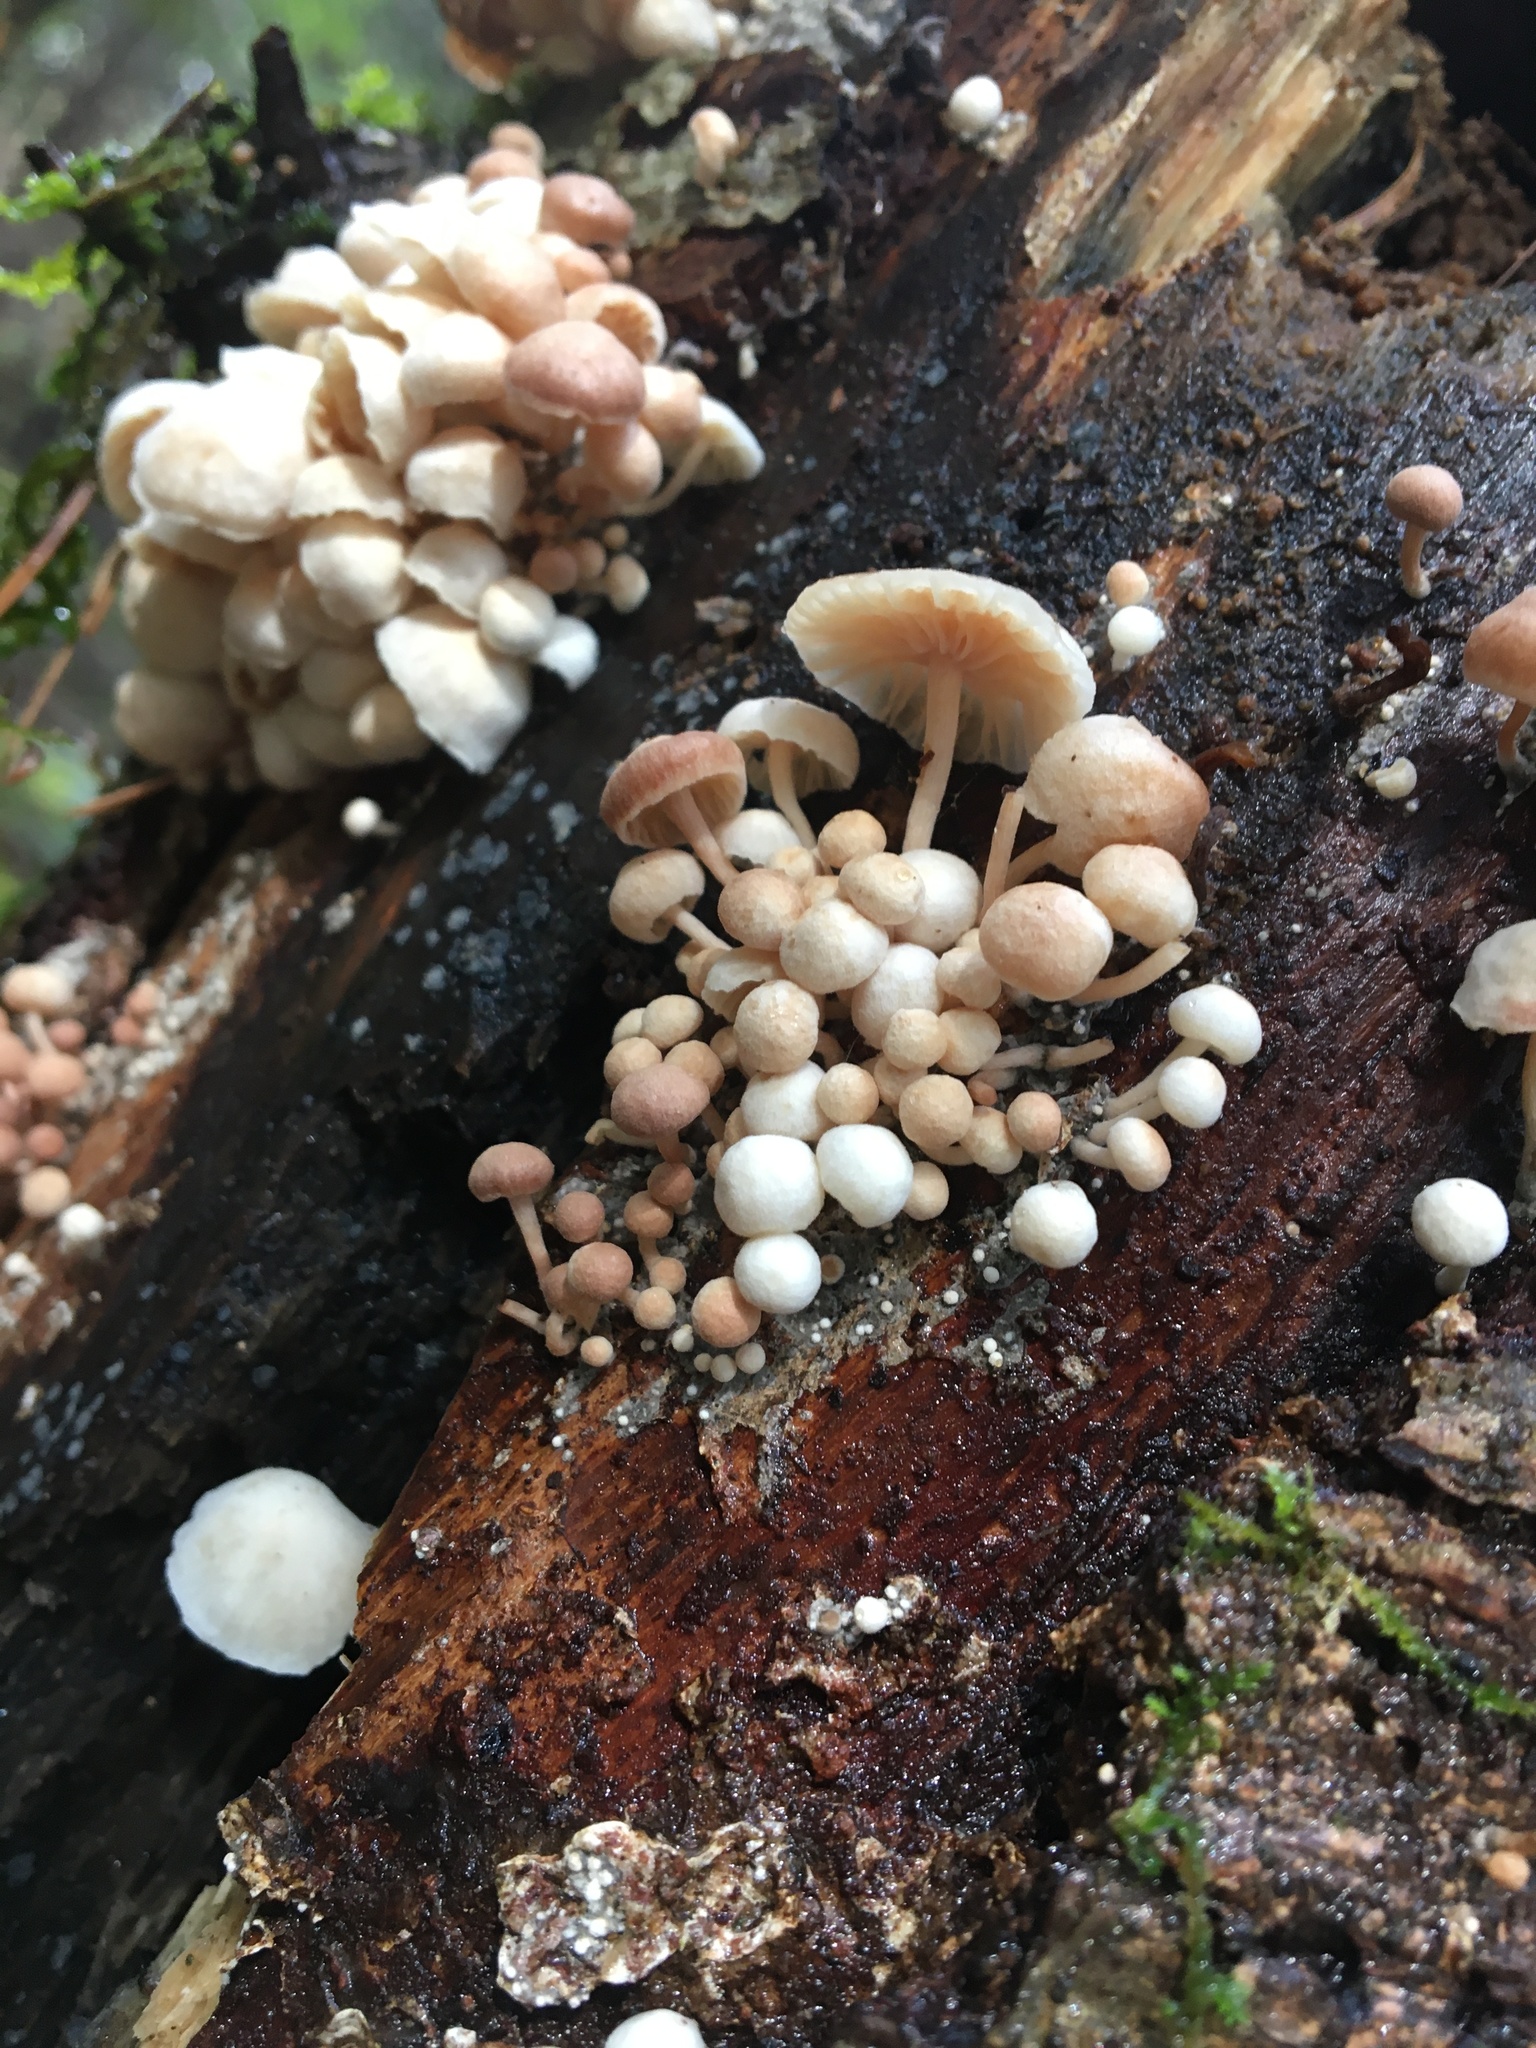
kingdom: Fungi
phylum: Basidiomycota
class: Agaricomycetes
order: Agaricales
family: Omphalotaceae
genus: Marasmiellus
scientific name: Marasmiellus candidus
